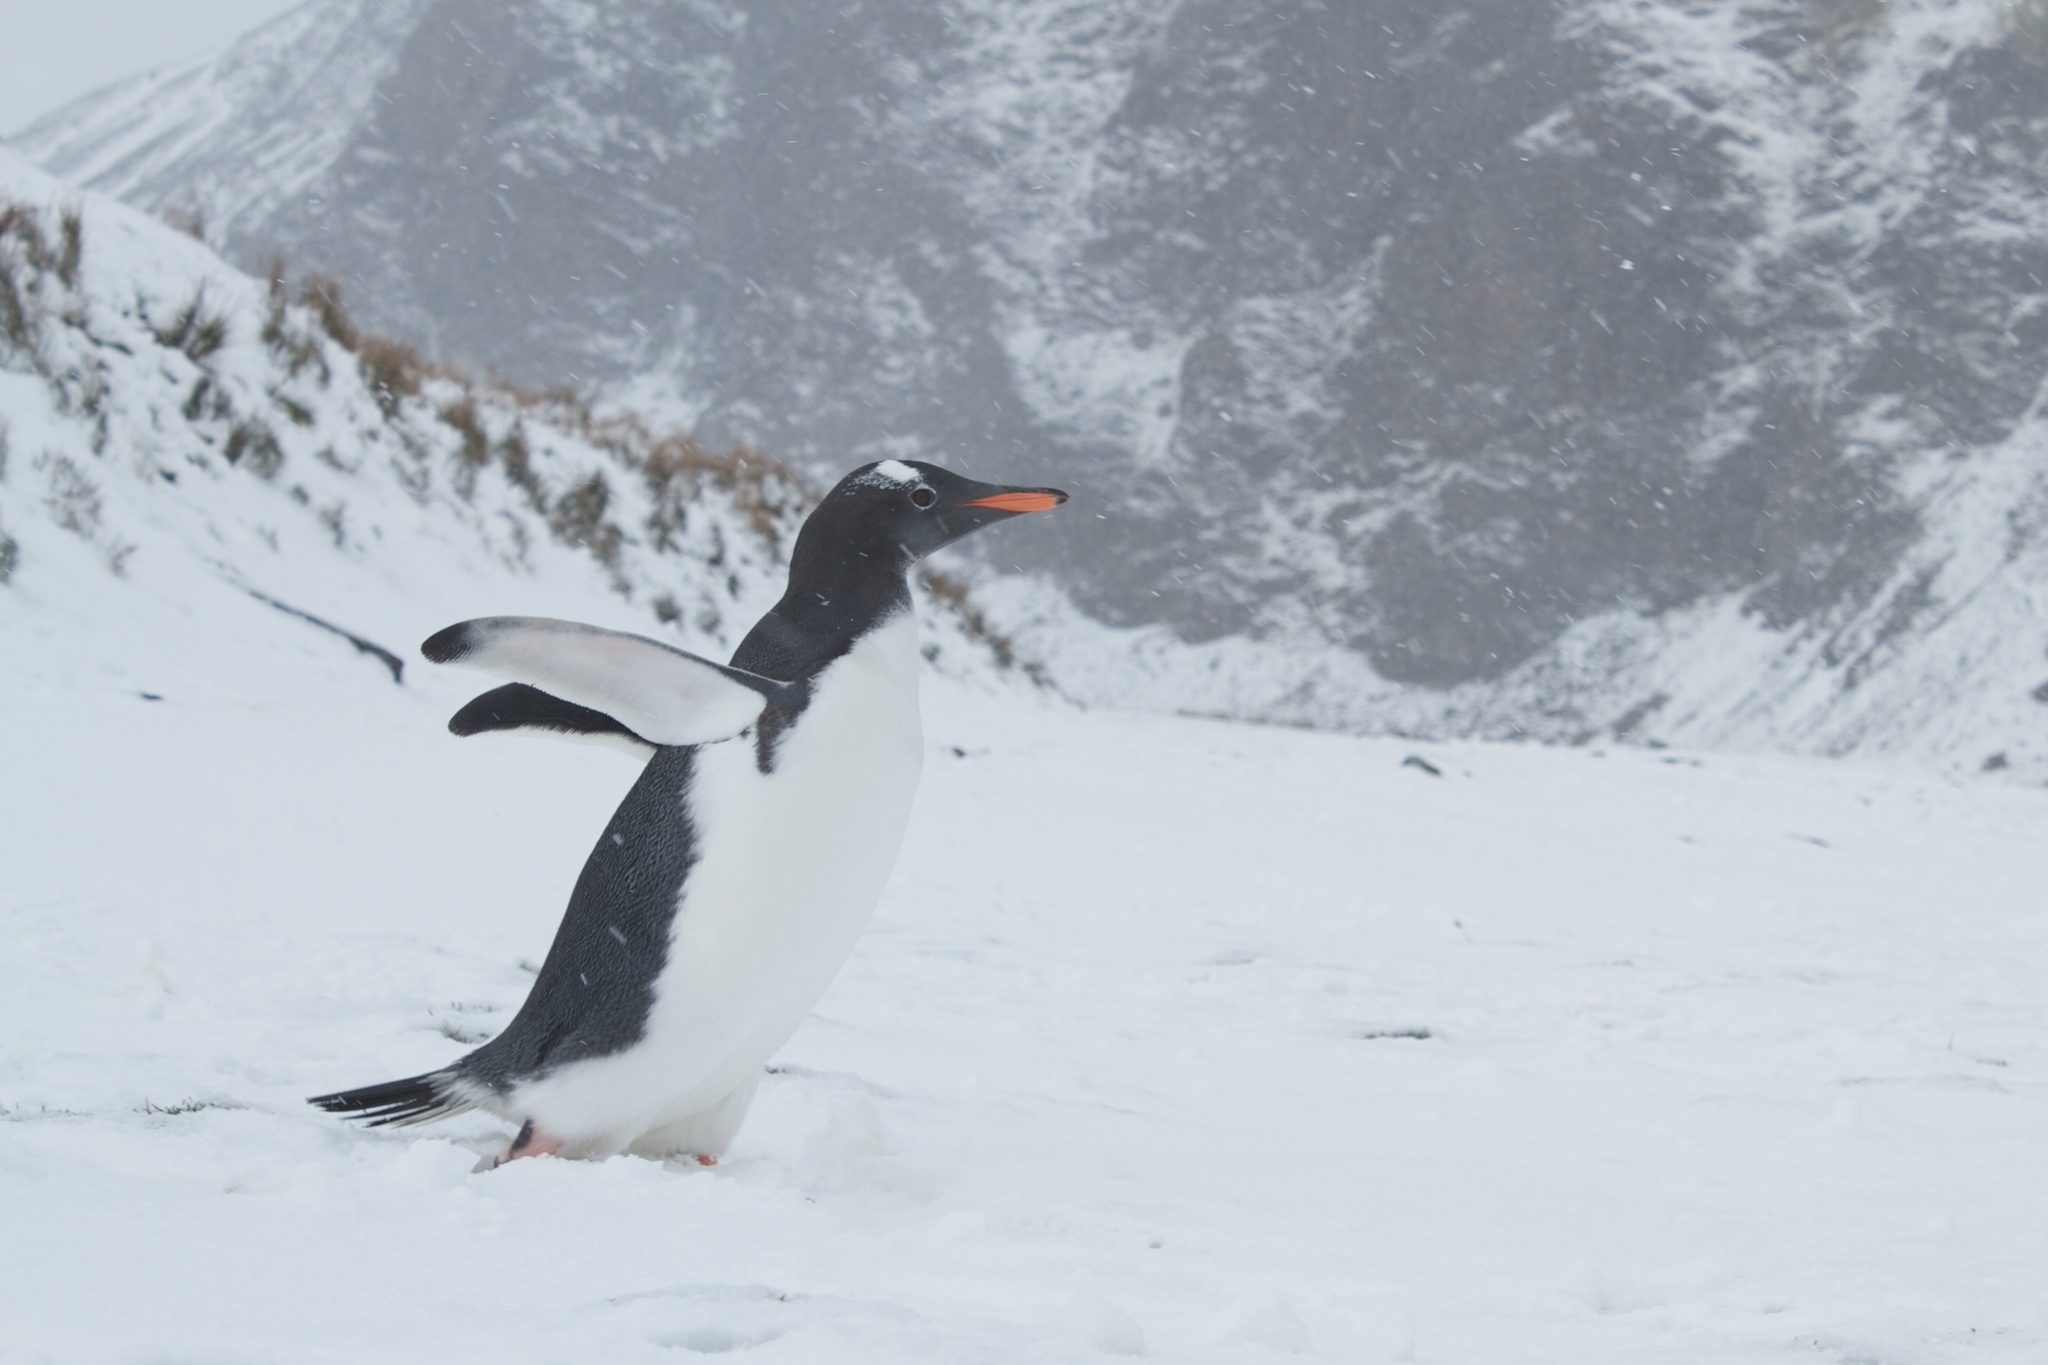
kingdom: Animalia
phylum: Chordata
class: Aves
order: Sphenisciformes
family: Spheniscidae
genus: Pygoscelis
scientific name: Pygoscelis papua
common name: Gentoo penguin
